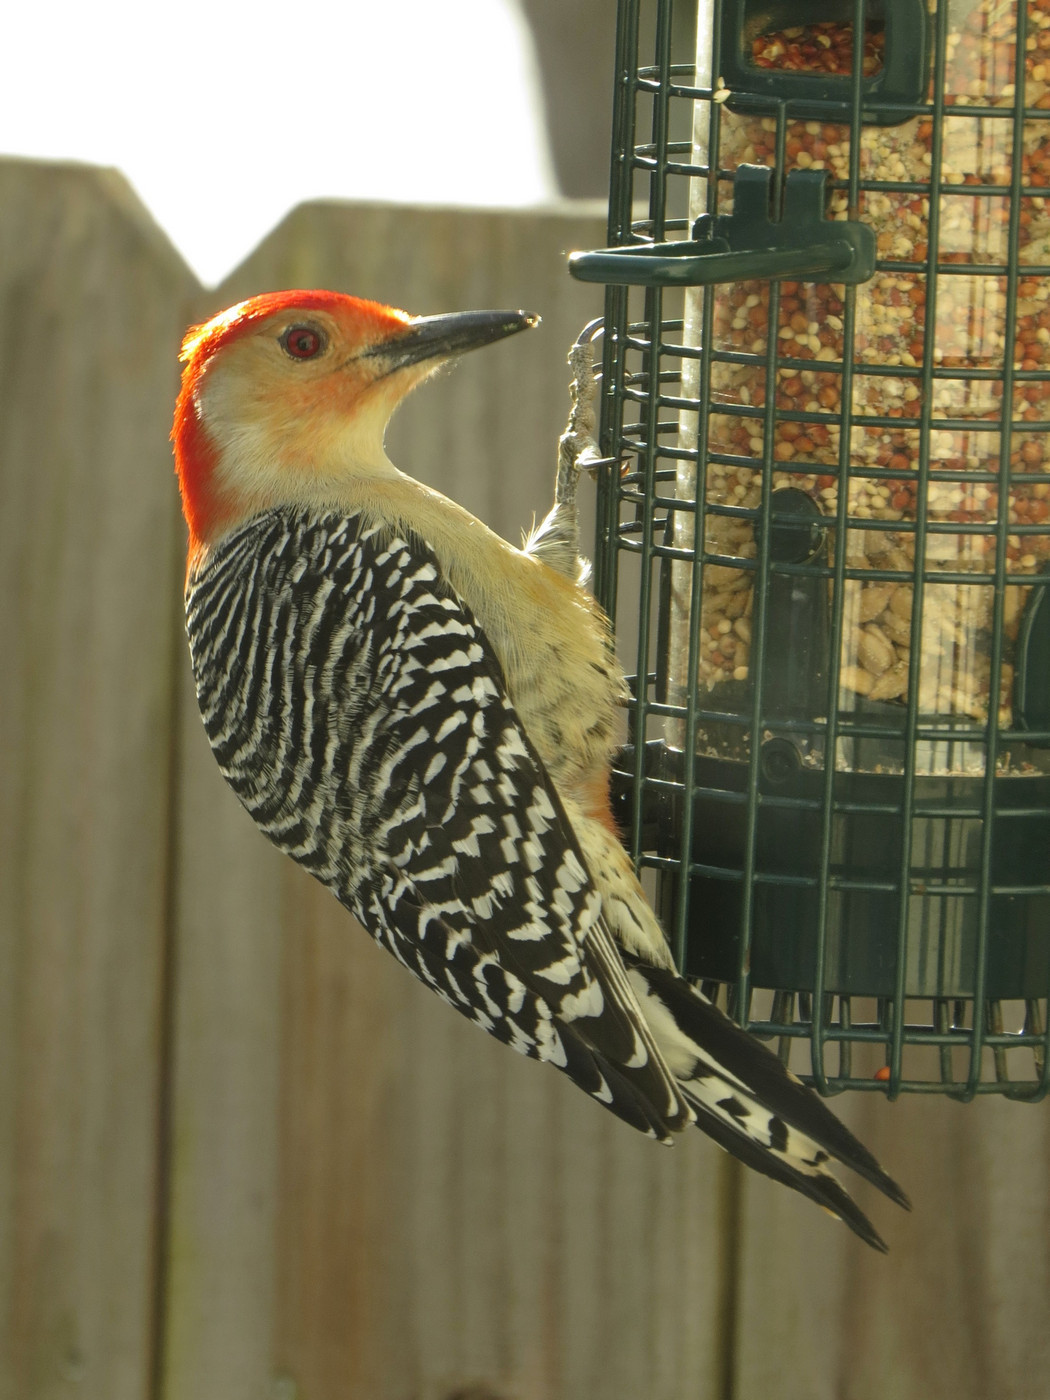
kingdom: Animalia
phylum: Chordata
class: Aves
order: Piciformes
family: Picidae
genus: Melanerpes
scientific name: Melanerpes carolinus
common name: Red-bellied woodpecker
